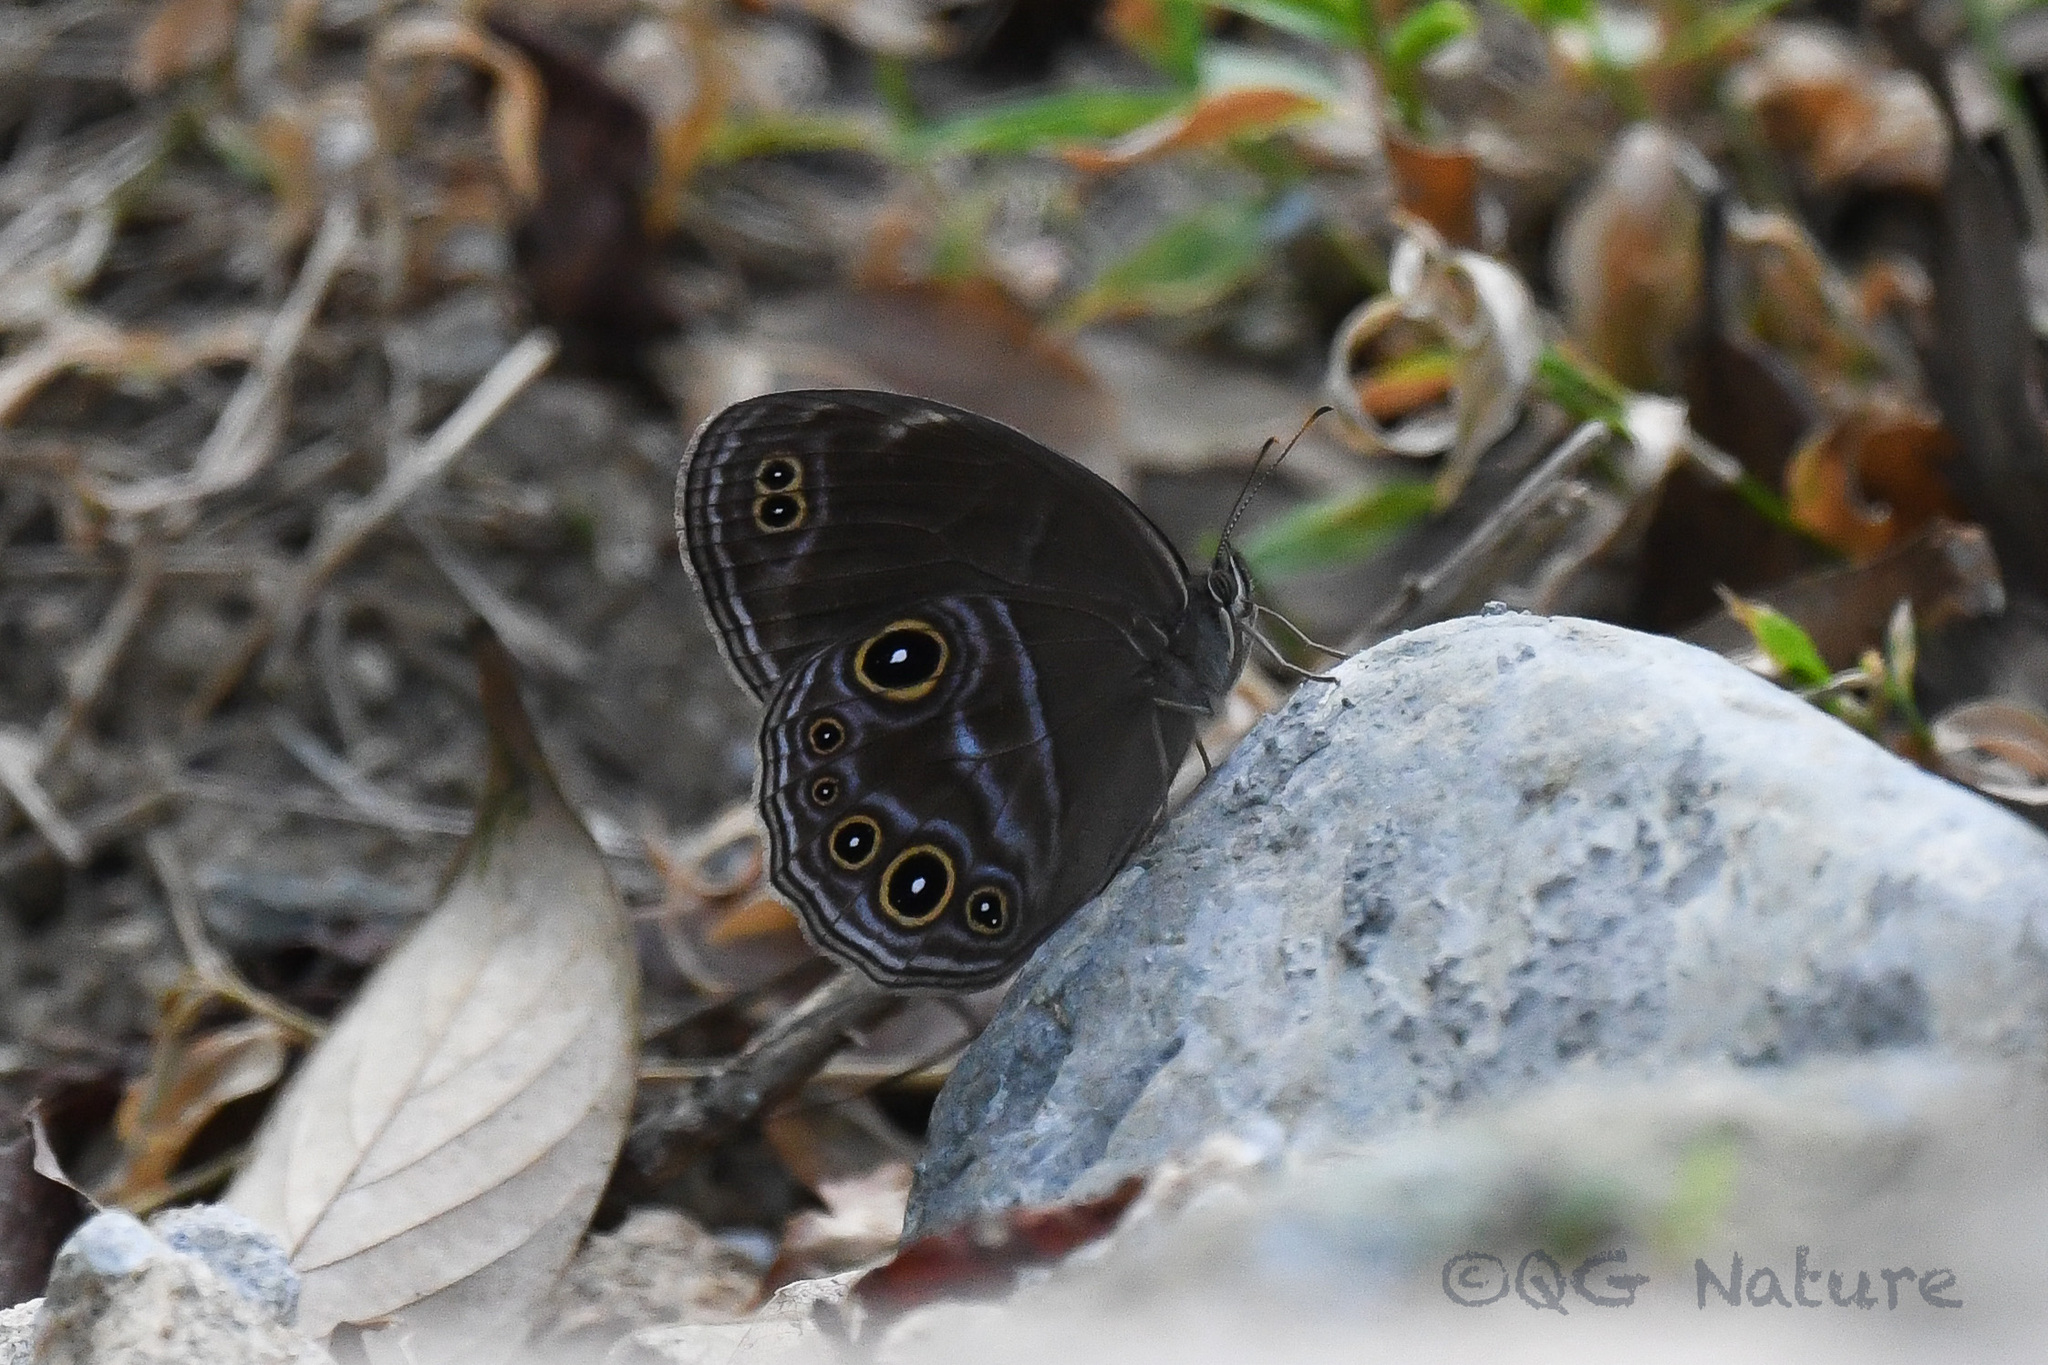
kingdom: Animalia
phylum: Arthropoda
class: Insecta
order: Lepidoptera
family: Nymphalidae
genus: Lethe
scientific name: Lethe satyrina
